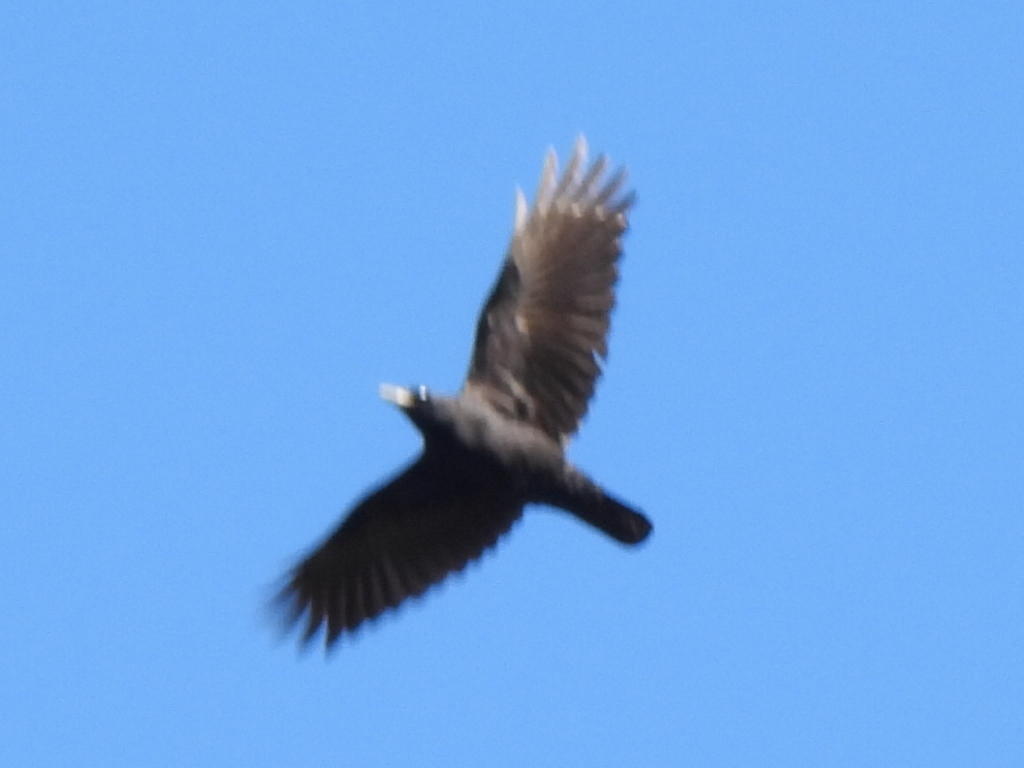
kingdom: Animalia
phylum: Chordata
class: Aves
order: Passeriformes
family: Corvidae
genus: Corvus
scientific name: Corvus brachyrhynchos
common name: American crow
